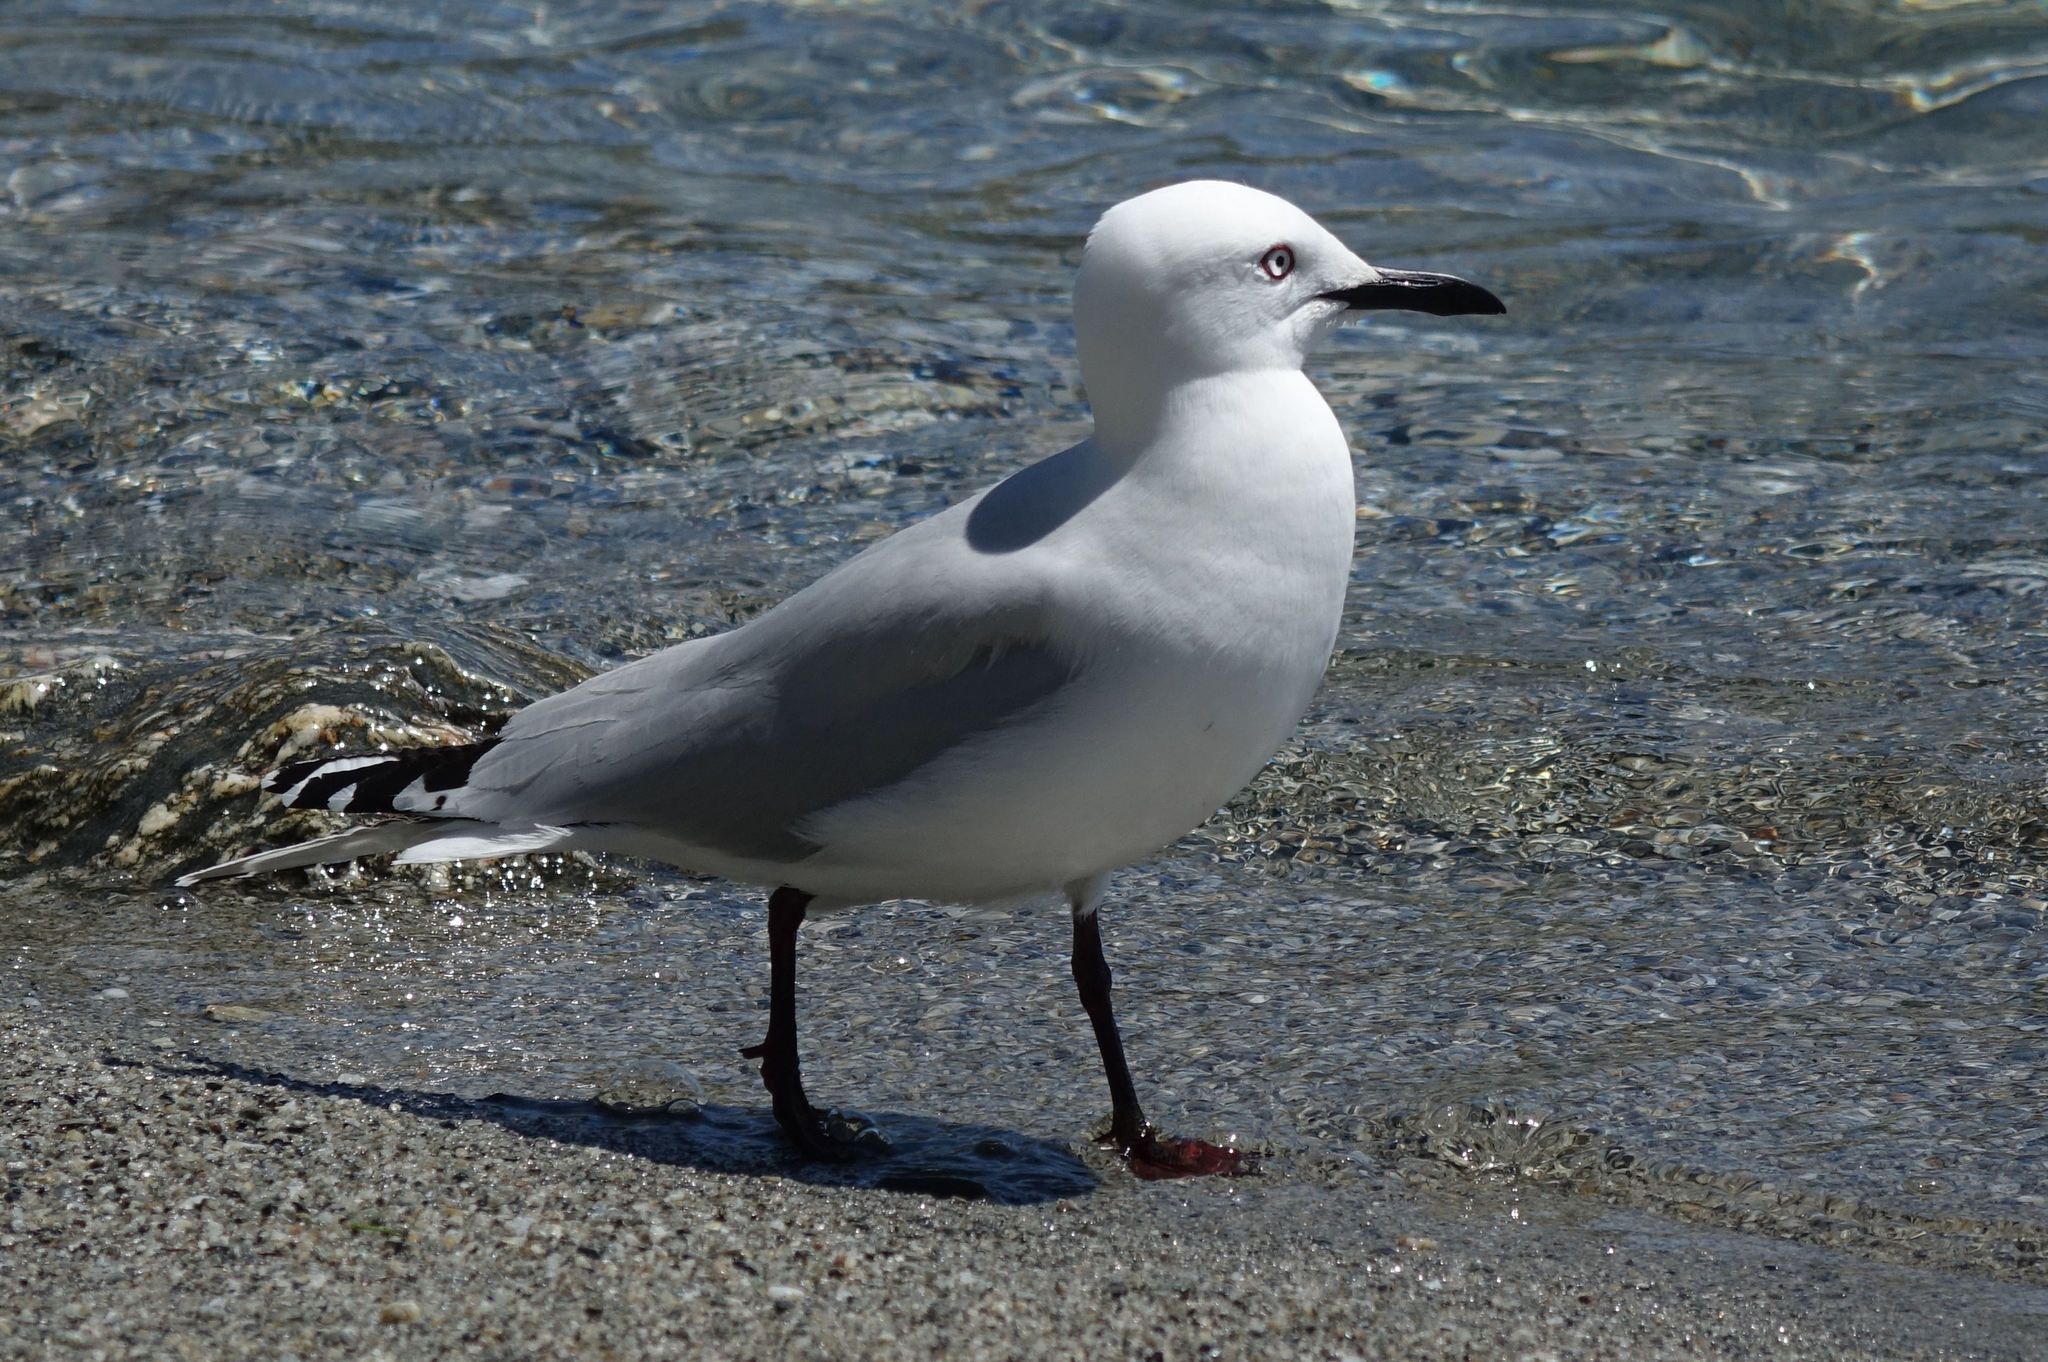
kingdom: Animalia
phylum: Chordata
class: Aves
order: Charadriiformes
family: Laridae
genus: Chroicocephalus
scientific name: Chroicocephalus bulleri
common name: Black-billed gull
